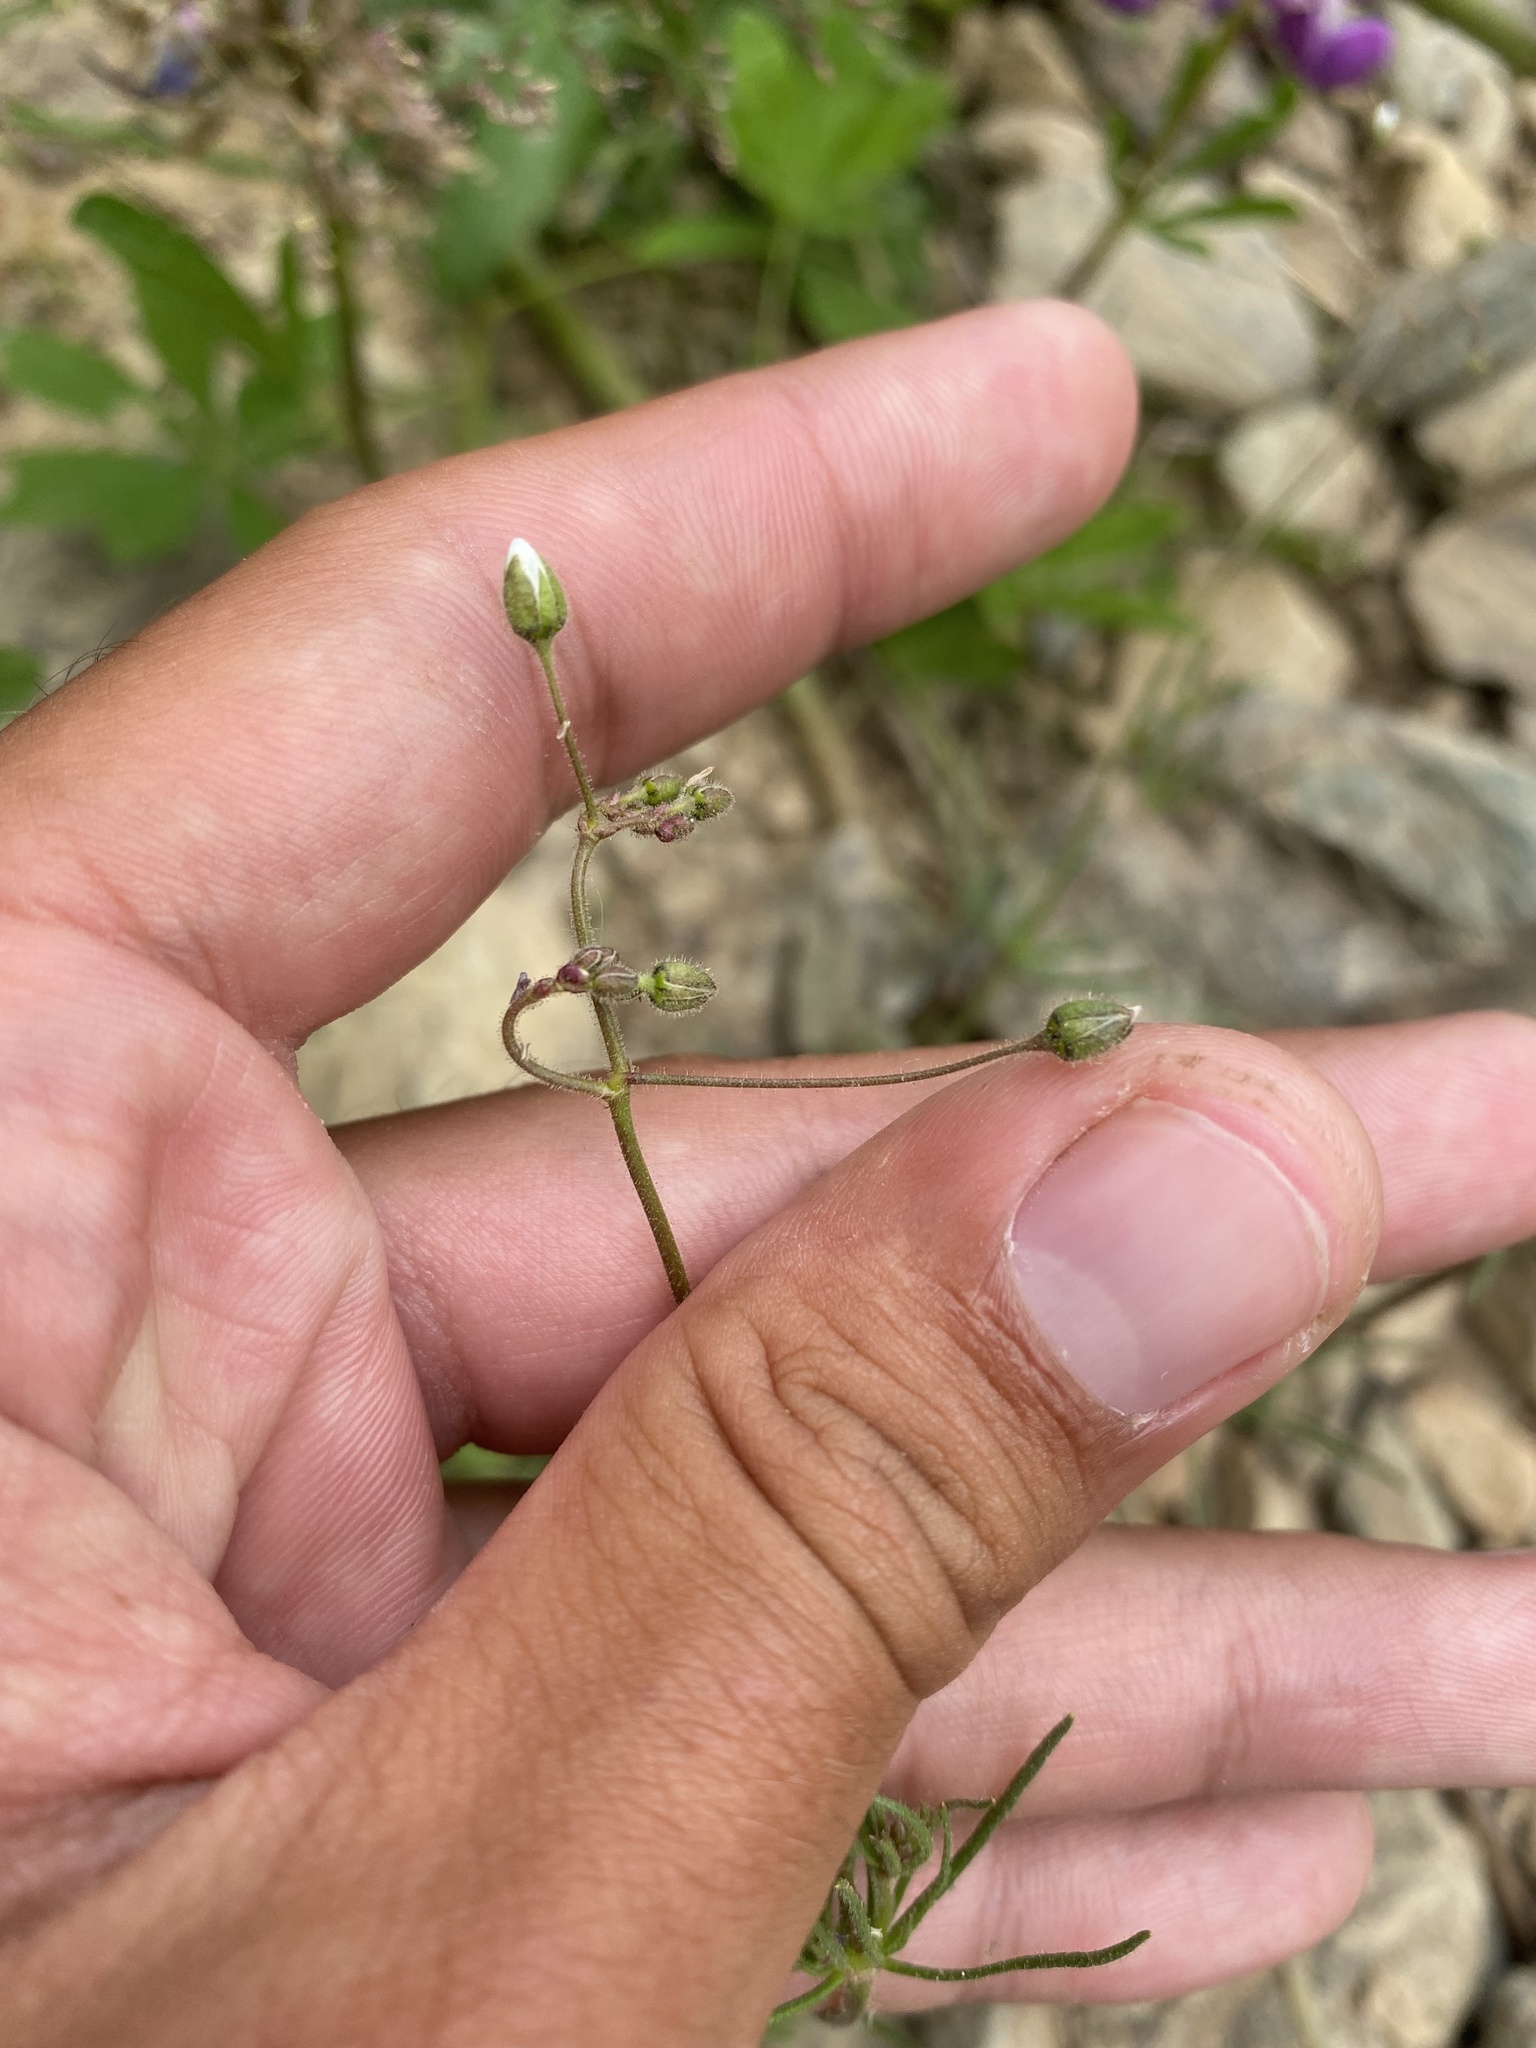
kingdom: Plantae
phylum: Tracheophyta
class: Magnoliopsida
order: Caryophyllales
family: Caryophyllaceae
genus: Spergula
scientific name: Spergula arvensis
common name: Corn spurrey
